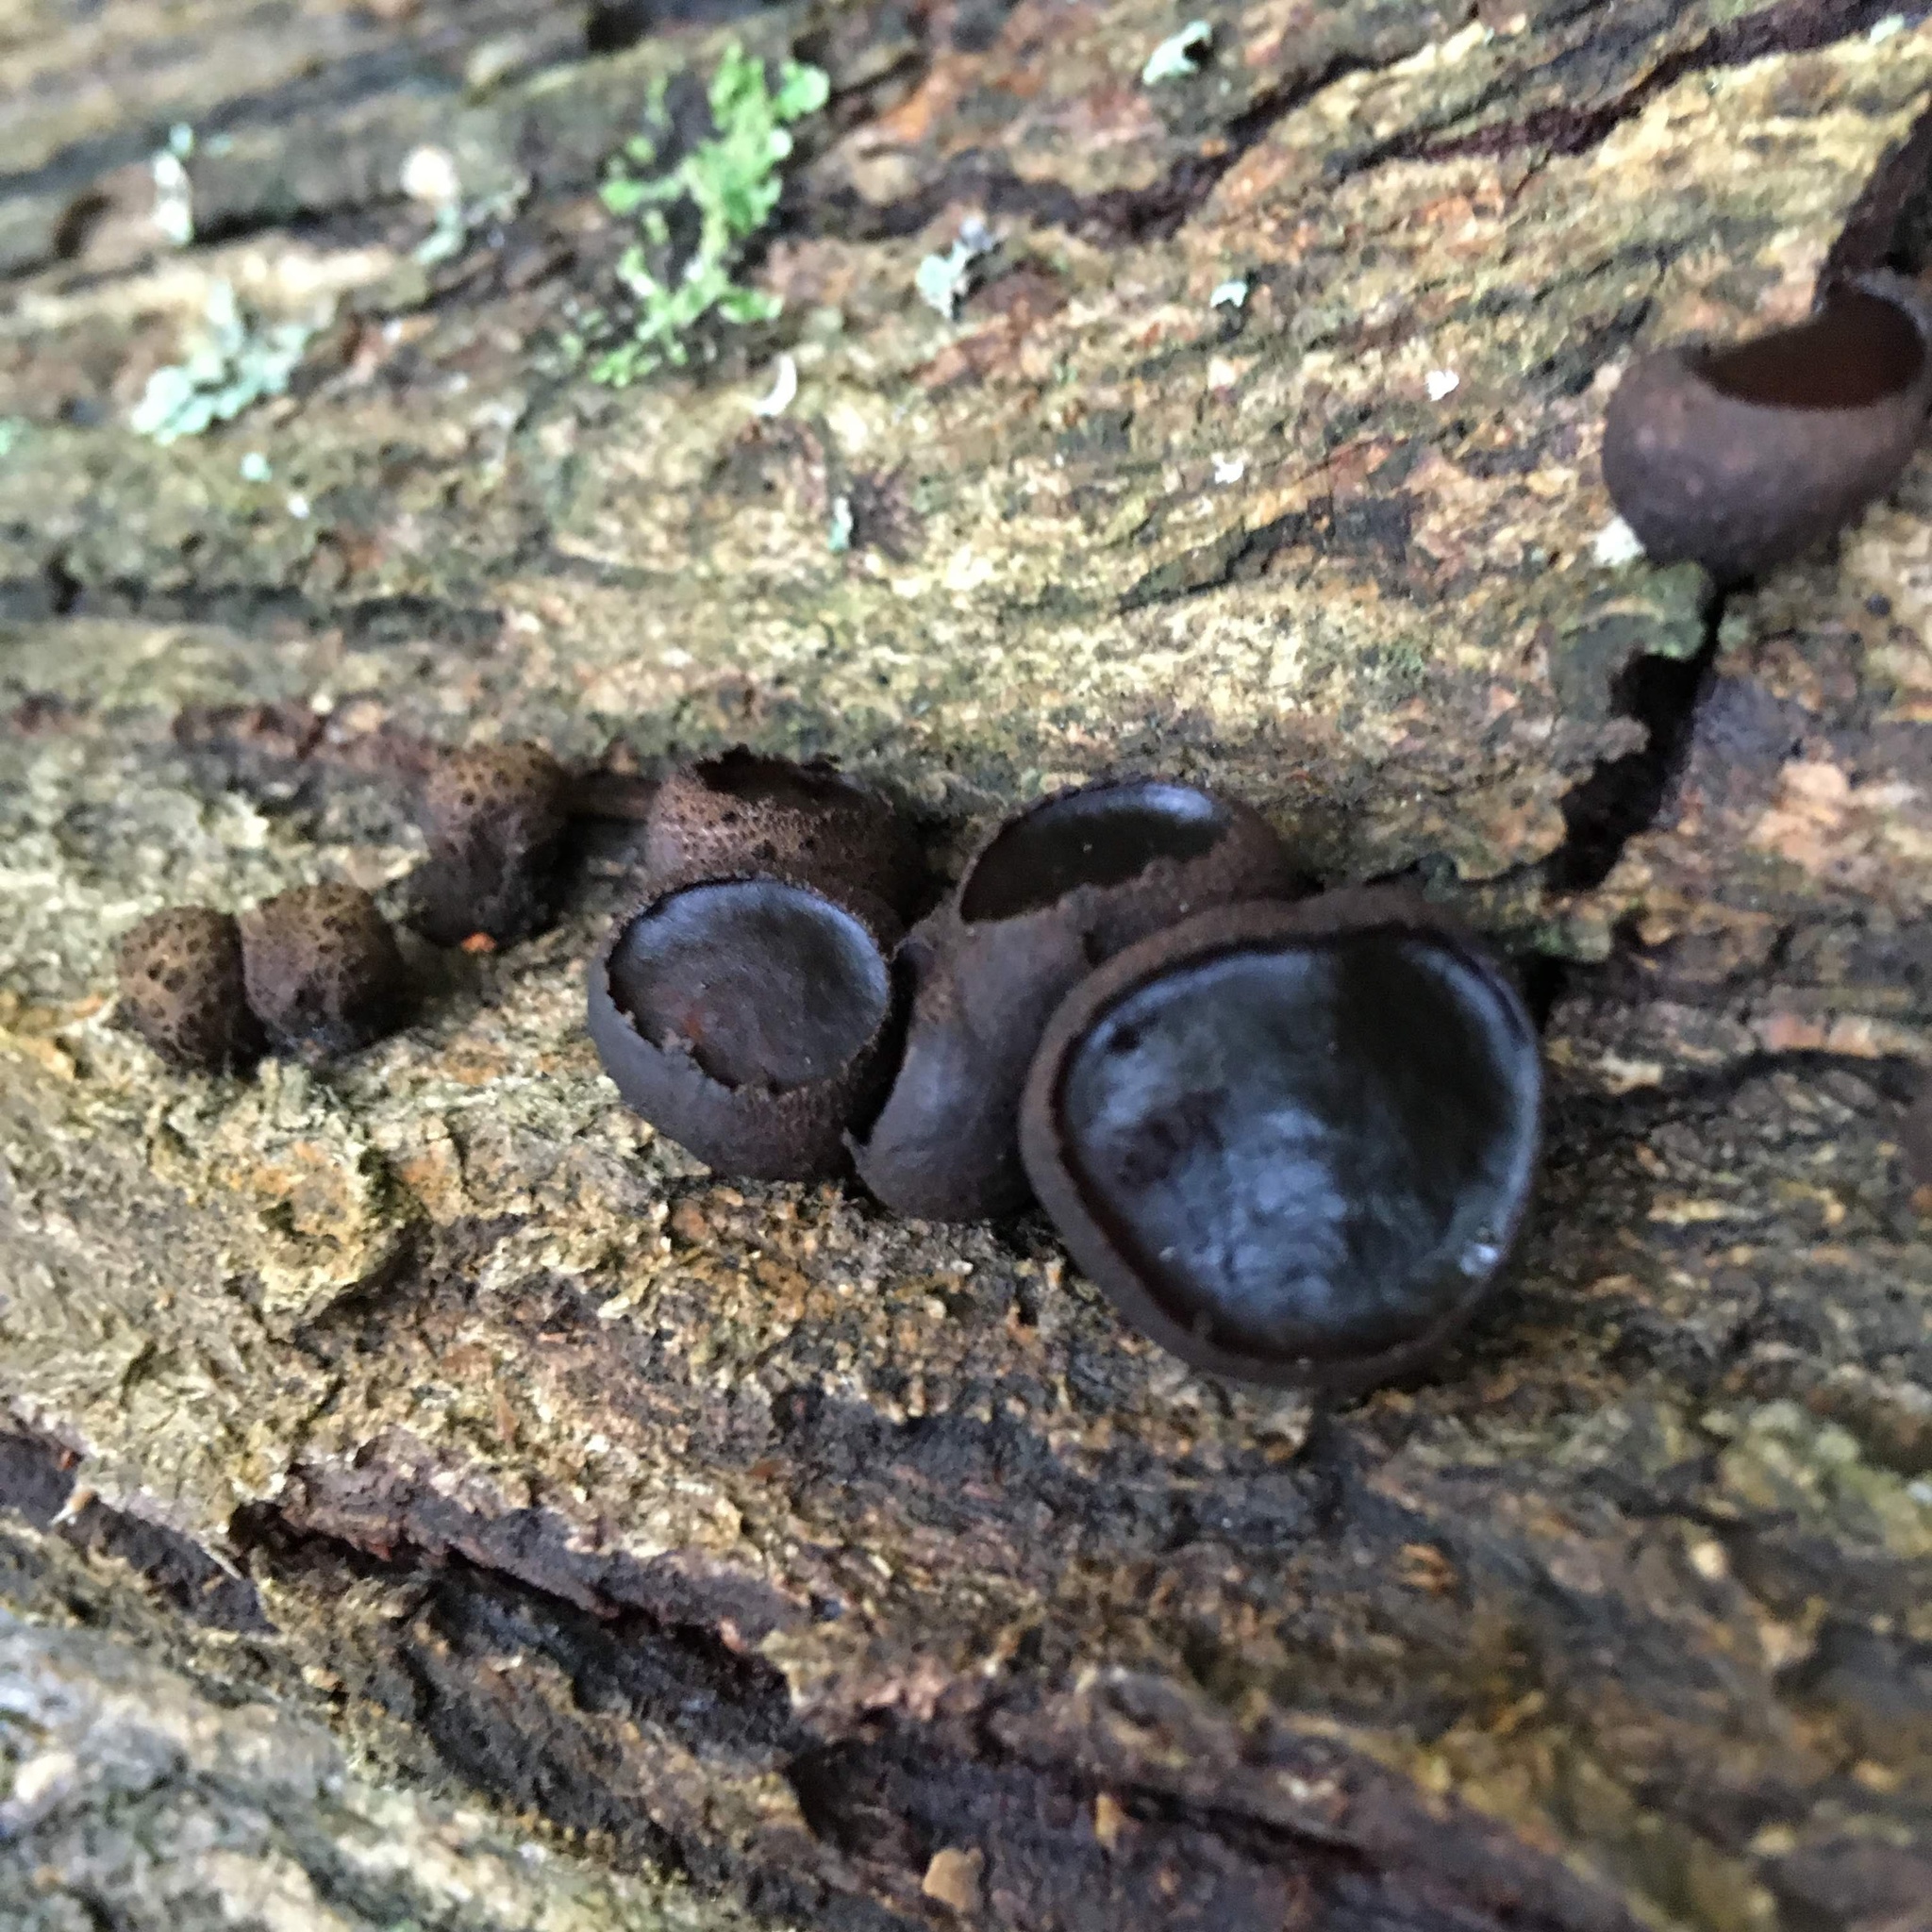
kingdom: Fungi
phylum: Ascomycota
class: Leotiomycetes
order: Phacidiales
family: Phacidiaceae
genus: Bulgaria
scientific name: Bulgaria inquinans
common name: Black bulgar
